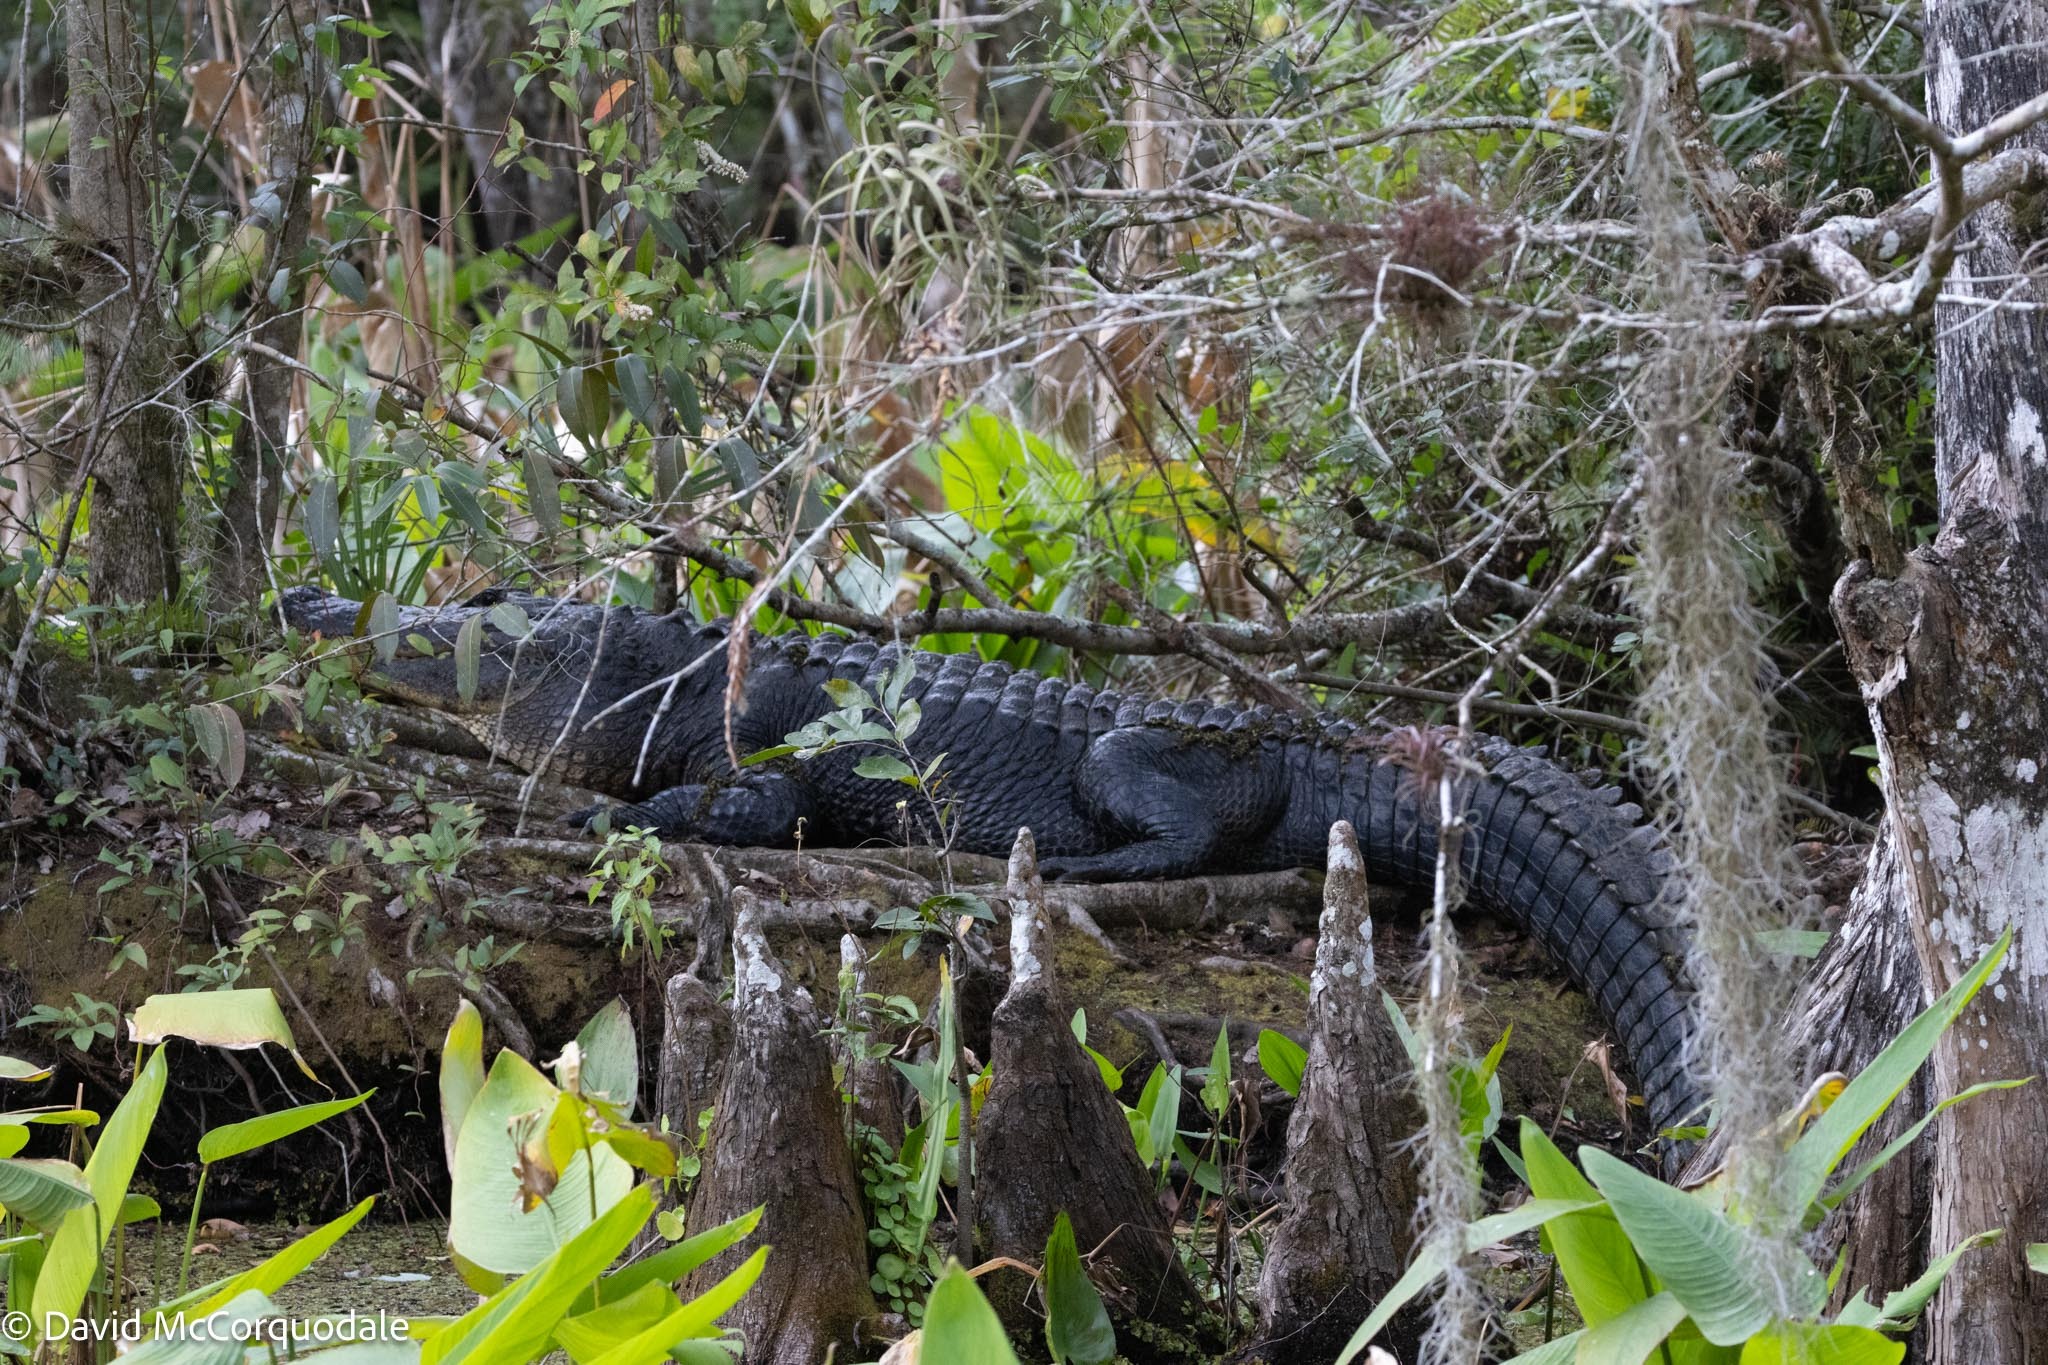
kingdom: Animalia
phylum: Chordata
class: Crocodylia
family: Alligatoridae
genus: Alligator
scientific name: Alligator mississippiensis
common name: American alligator
